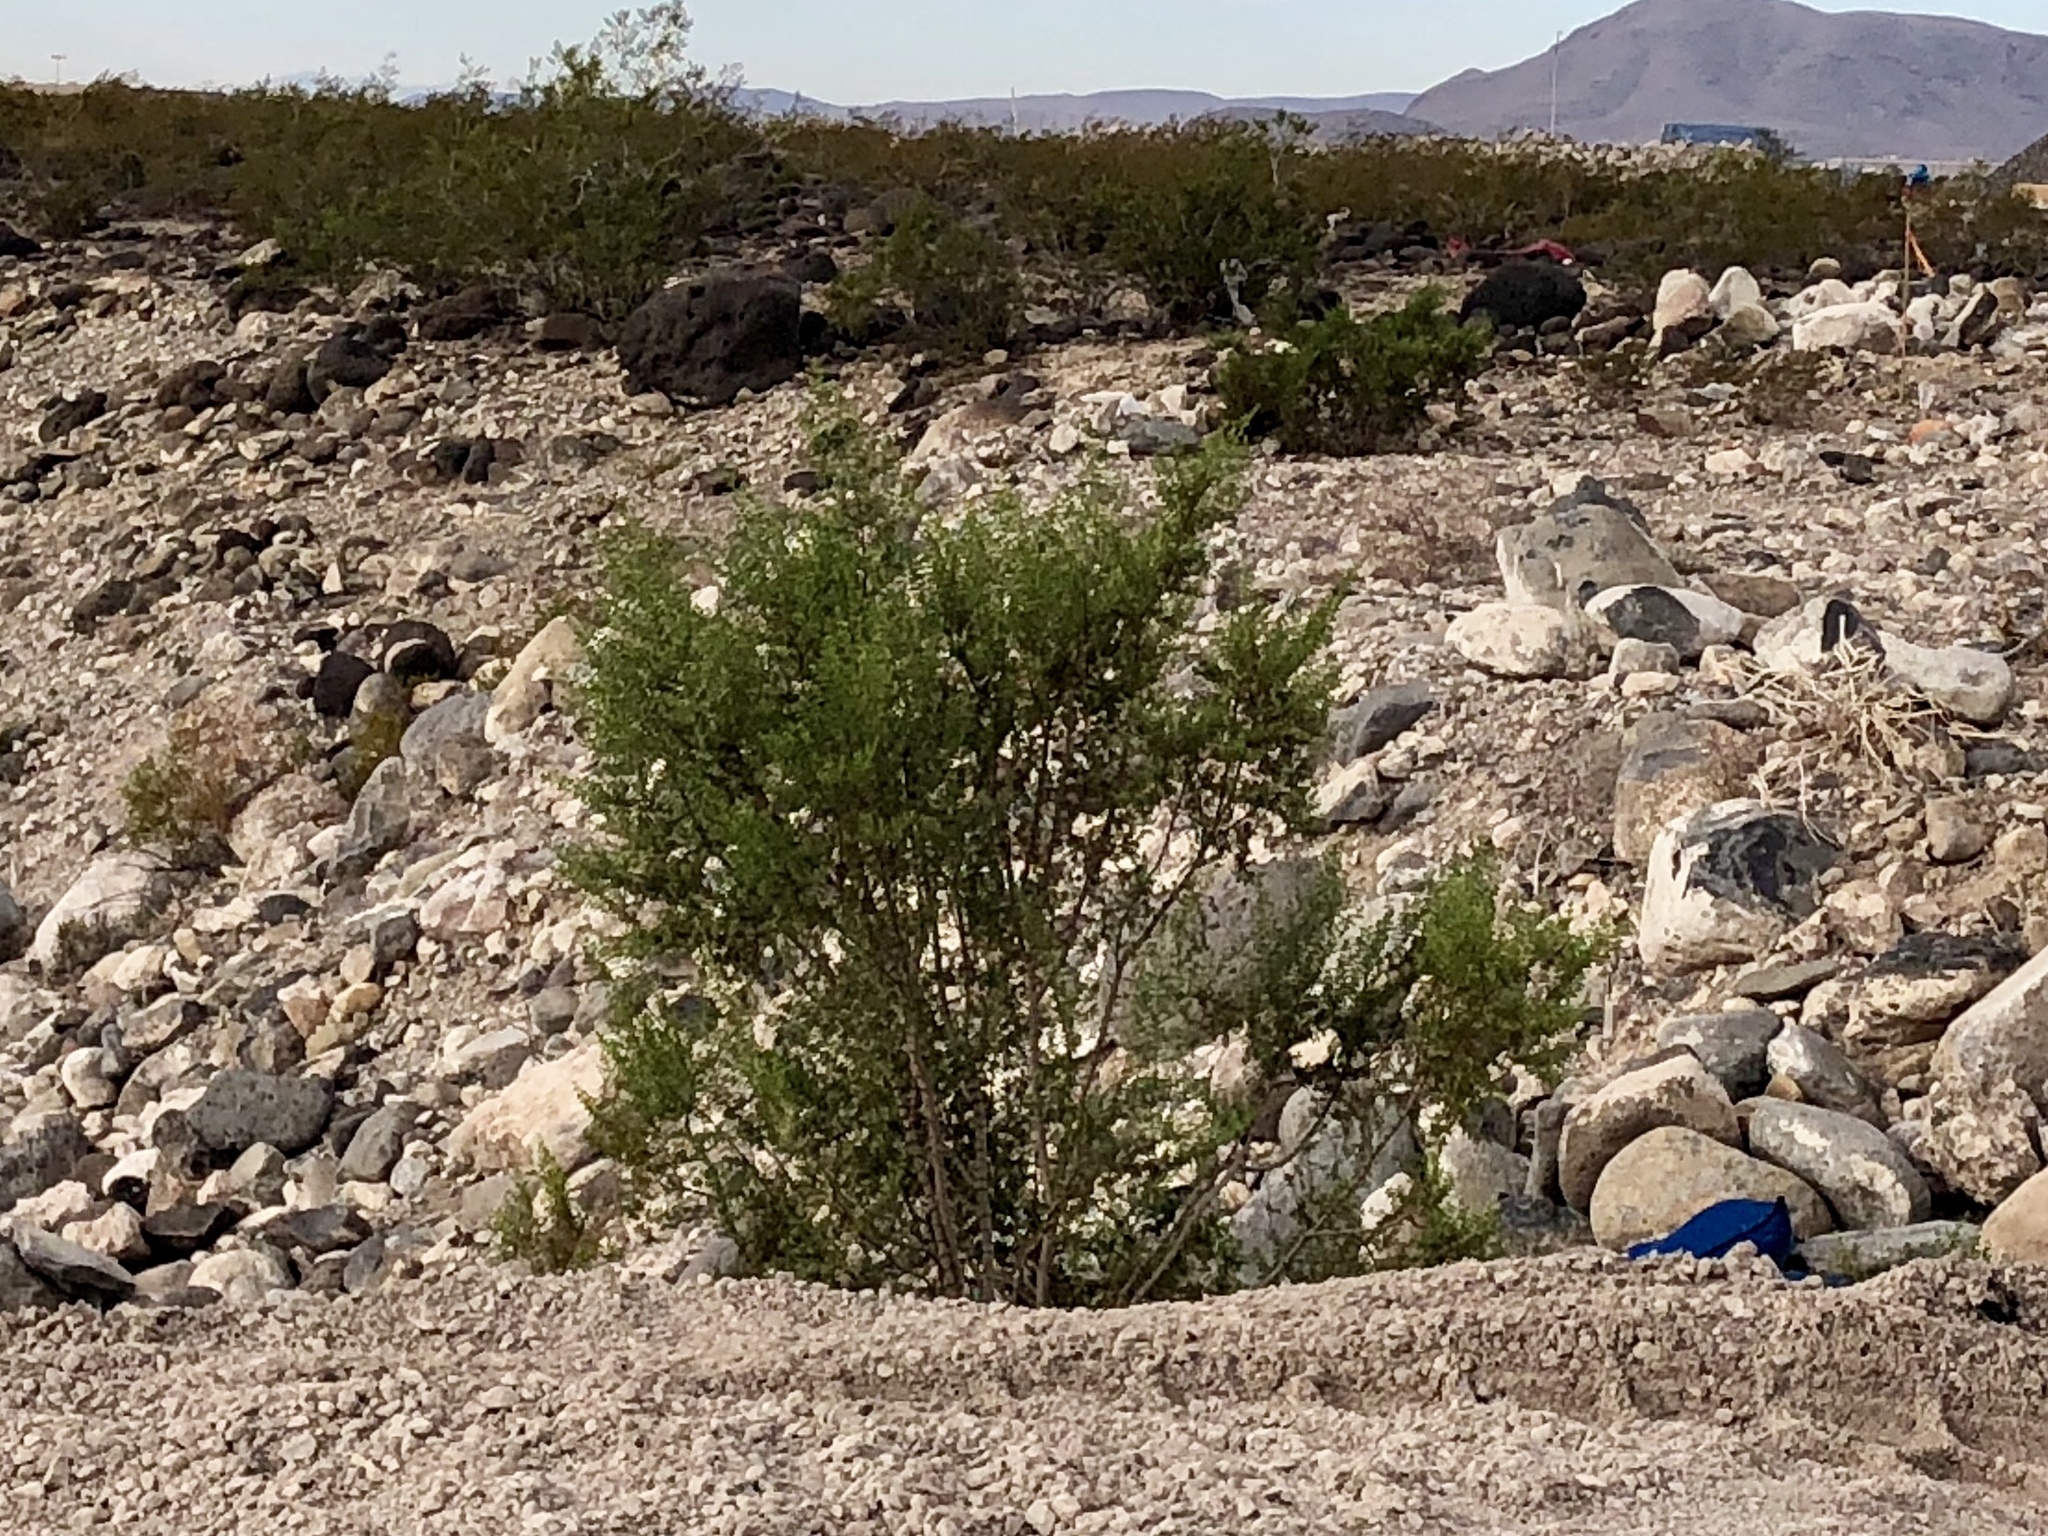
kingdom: Plantae
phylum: Tracheophyta
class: Magnoliopsida
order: Zygophyllales
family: Zygophyllaceae
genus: Larrea
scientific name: Larrea tridentata
